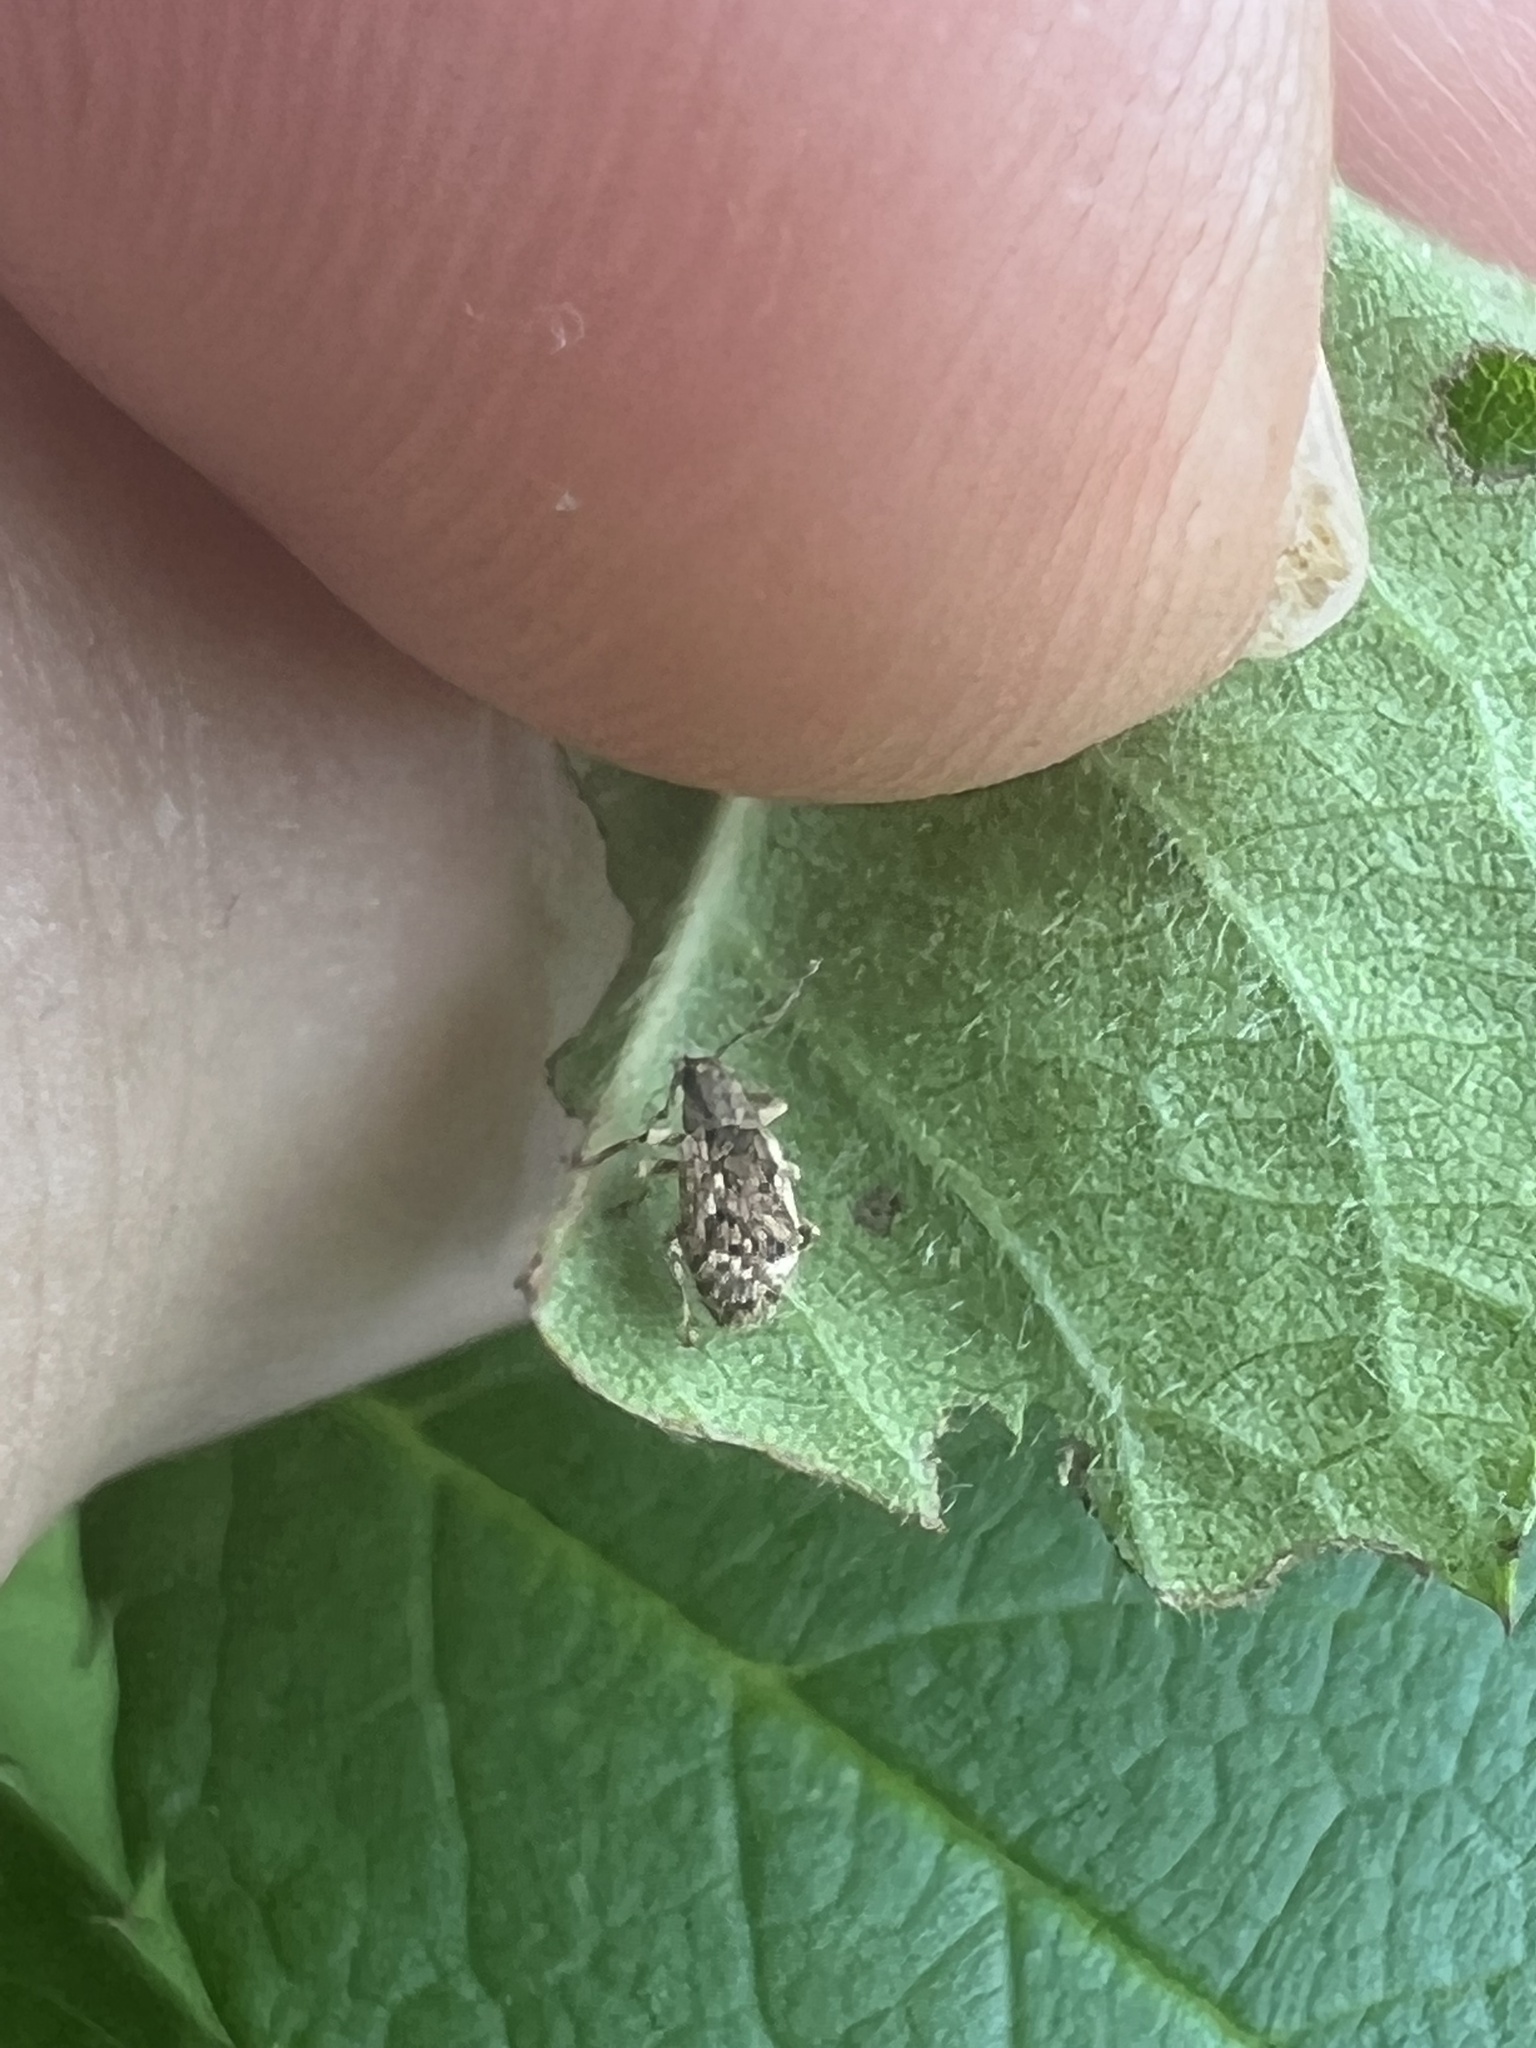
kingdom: Animalia
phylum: Arthropoda
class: Insecta
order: Coleoptera
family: Curculionidae
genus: Pseudoedophrys
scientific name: Pseudoedophrys hilleri
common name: Weevil
